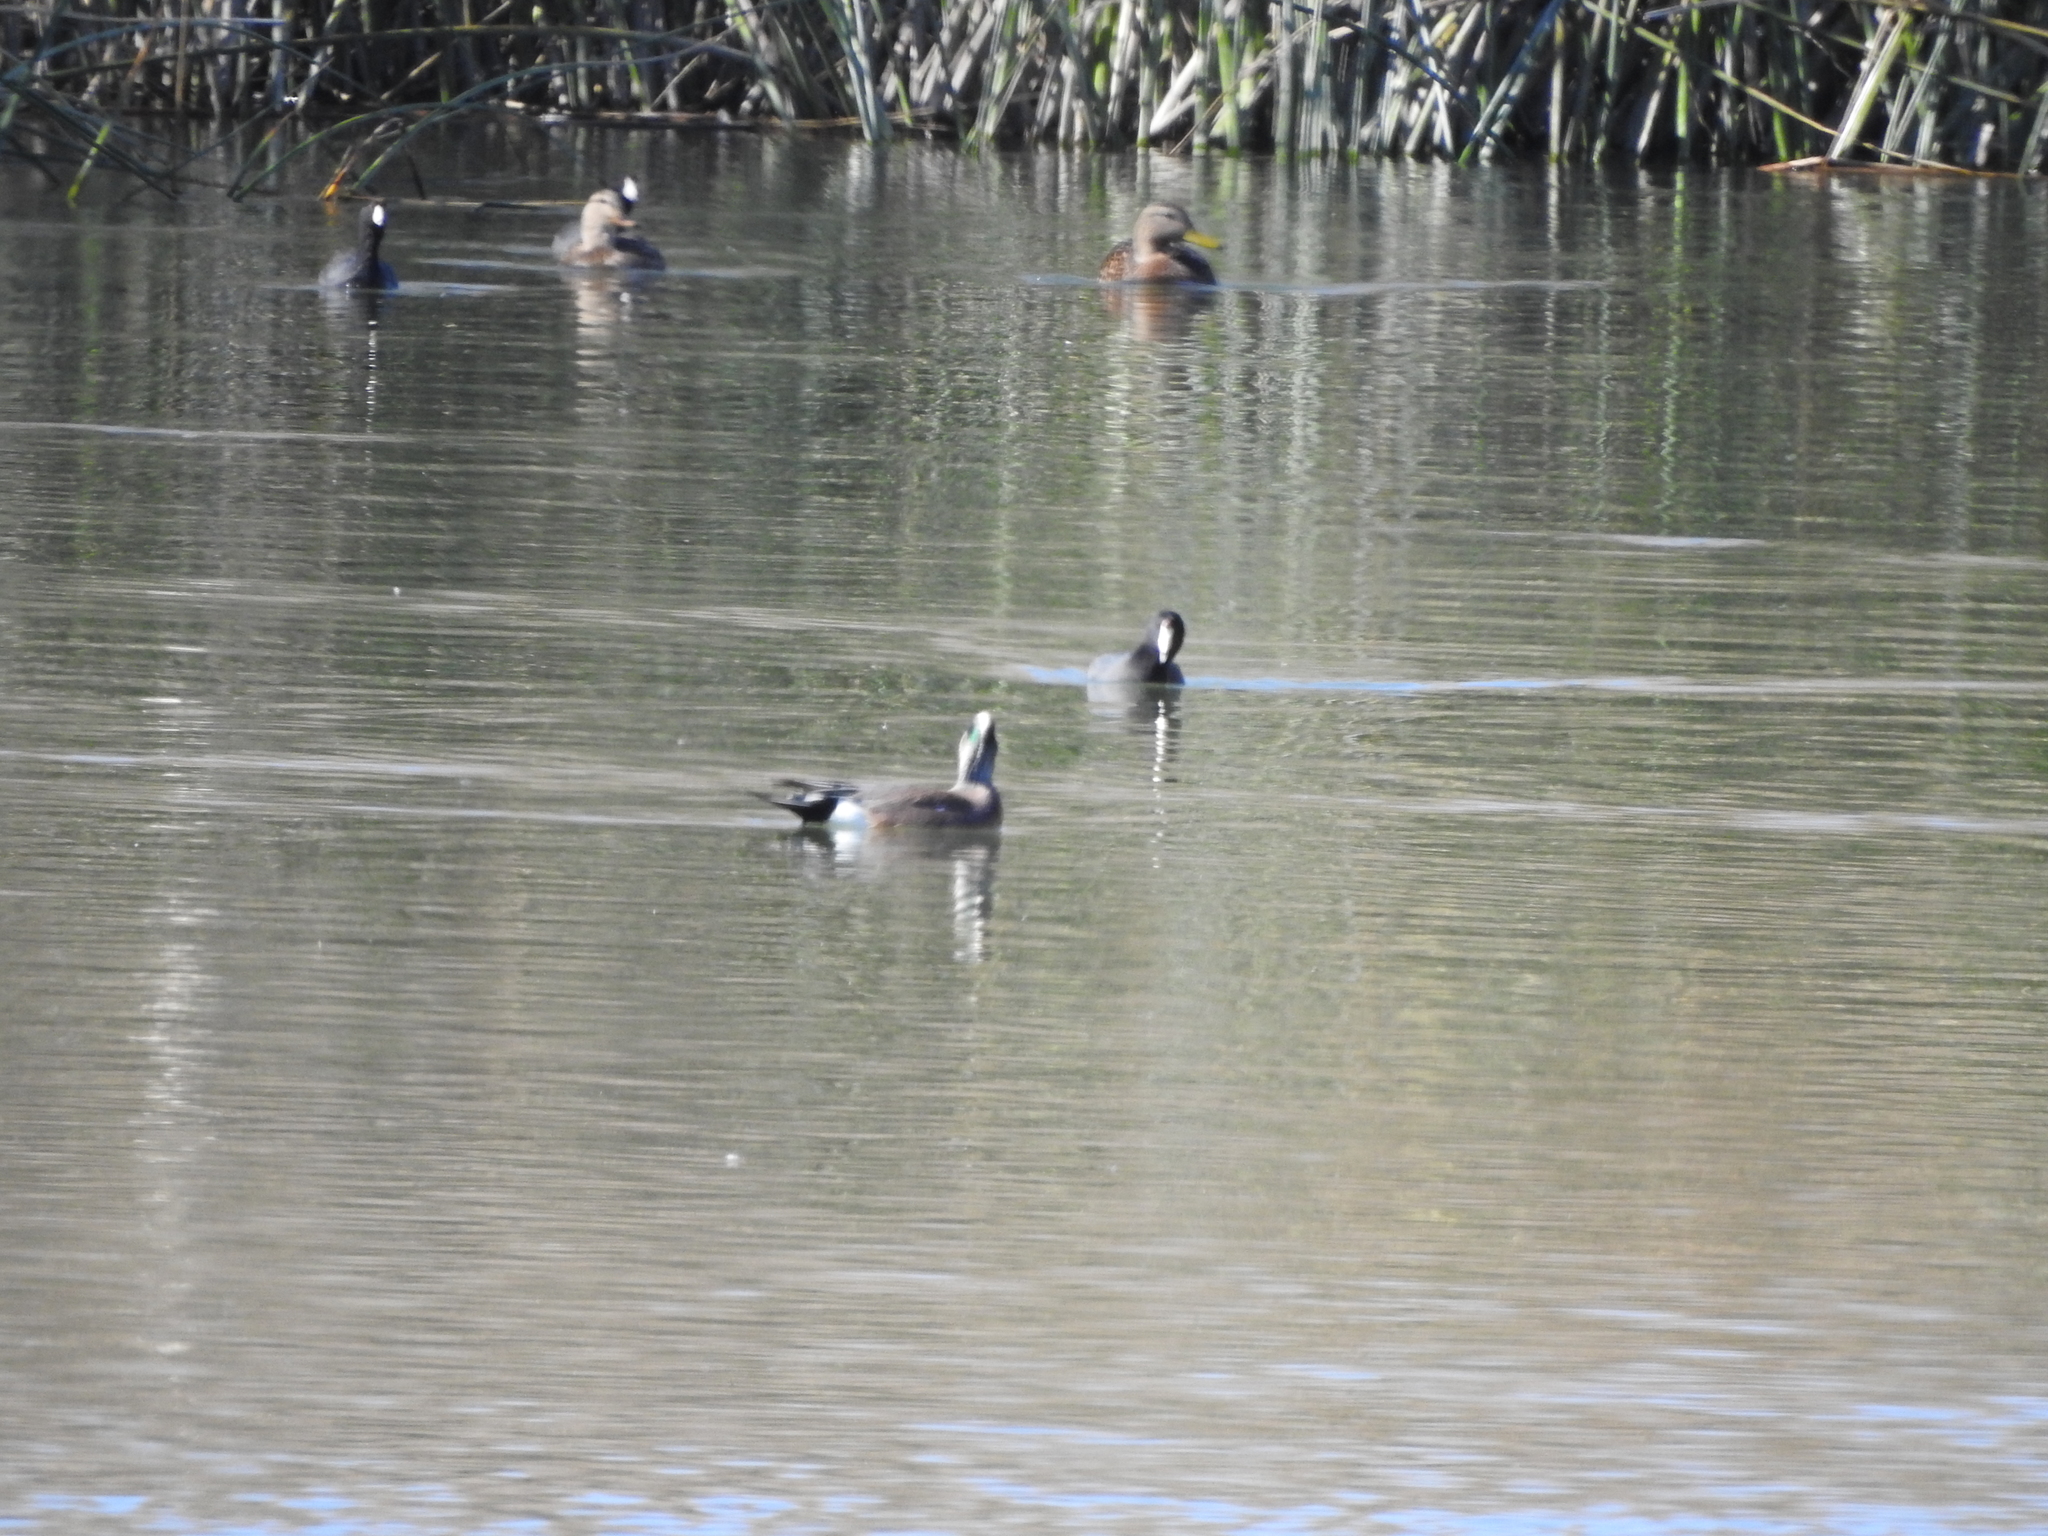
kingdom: Animalia
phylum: Chordata
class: Aves
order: Anseriformes
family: Anatidae
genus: Mareca
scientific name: Mareca americana
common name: American wigeon
